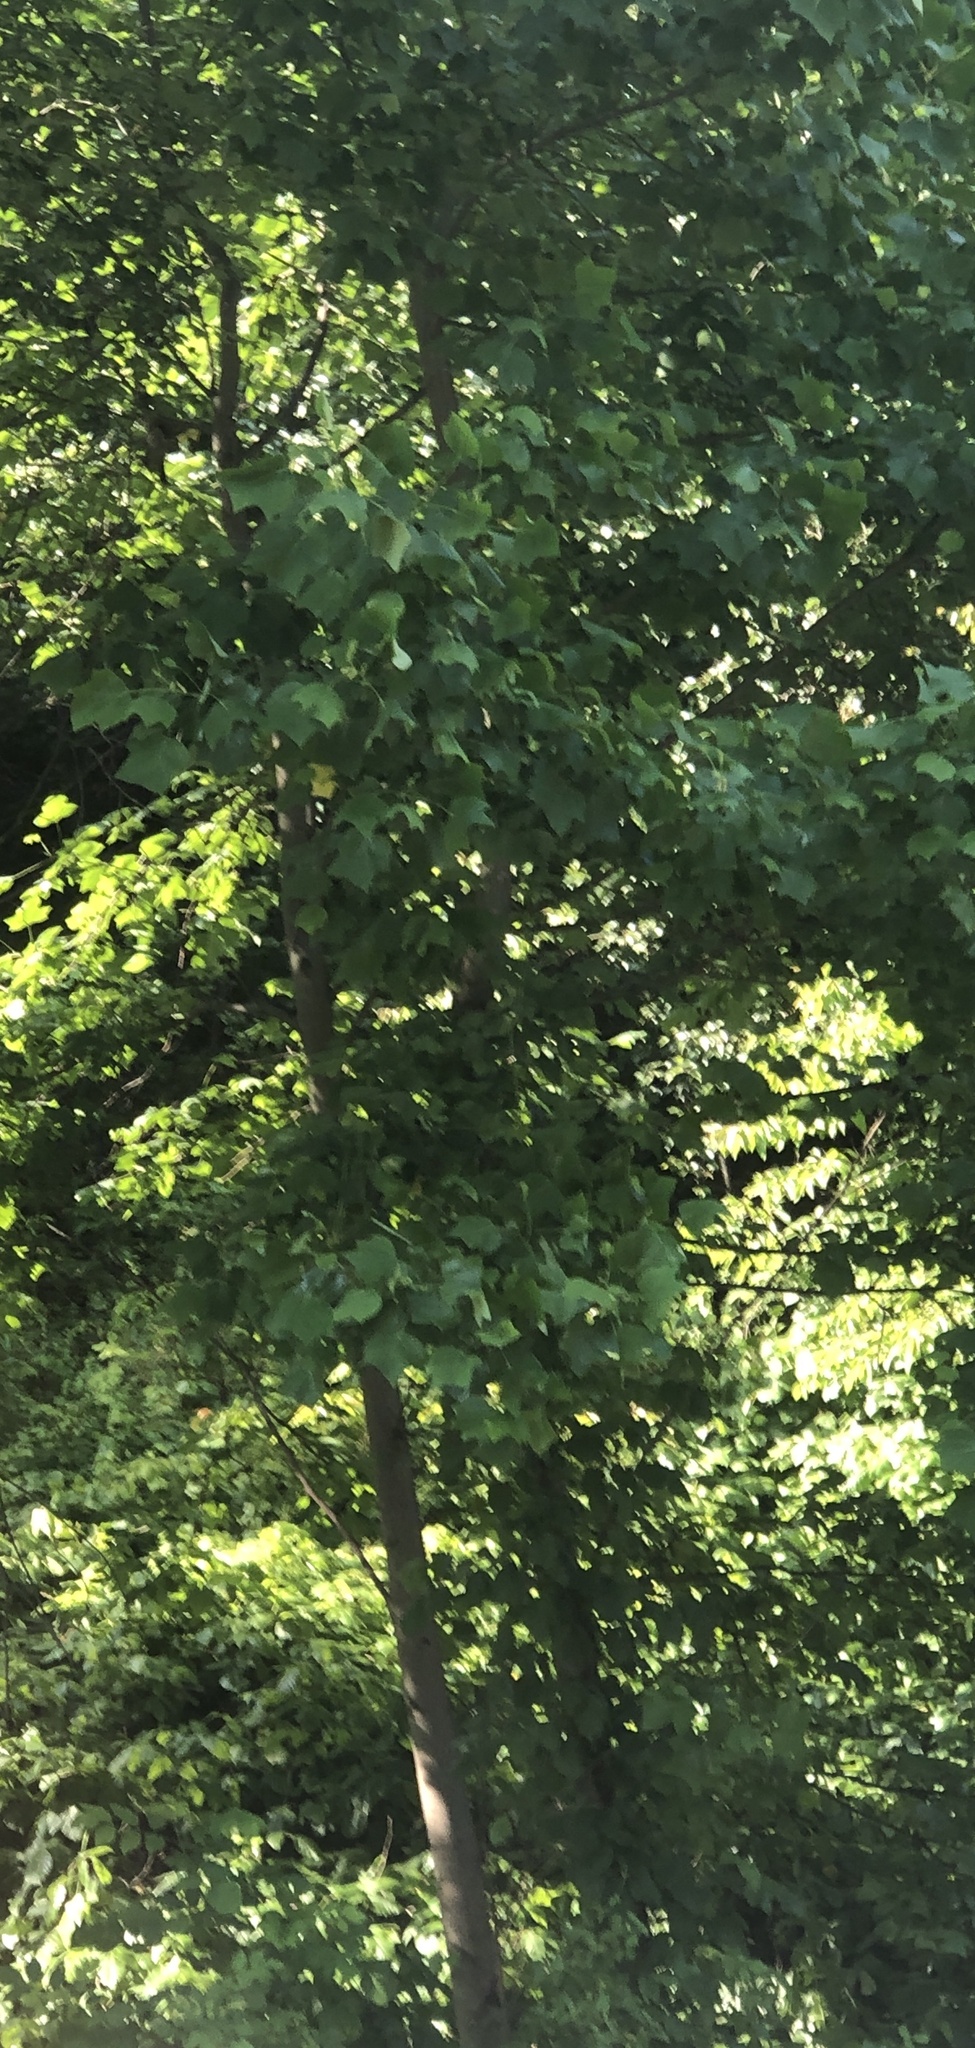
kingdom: Plantae
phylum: Tracheophyta
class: Magnoliopsida
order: Magnoliales
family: Magnoliaceae
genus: Liriodendron
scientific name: Liriodendron tulipifera
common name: Tulip tree
